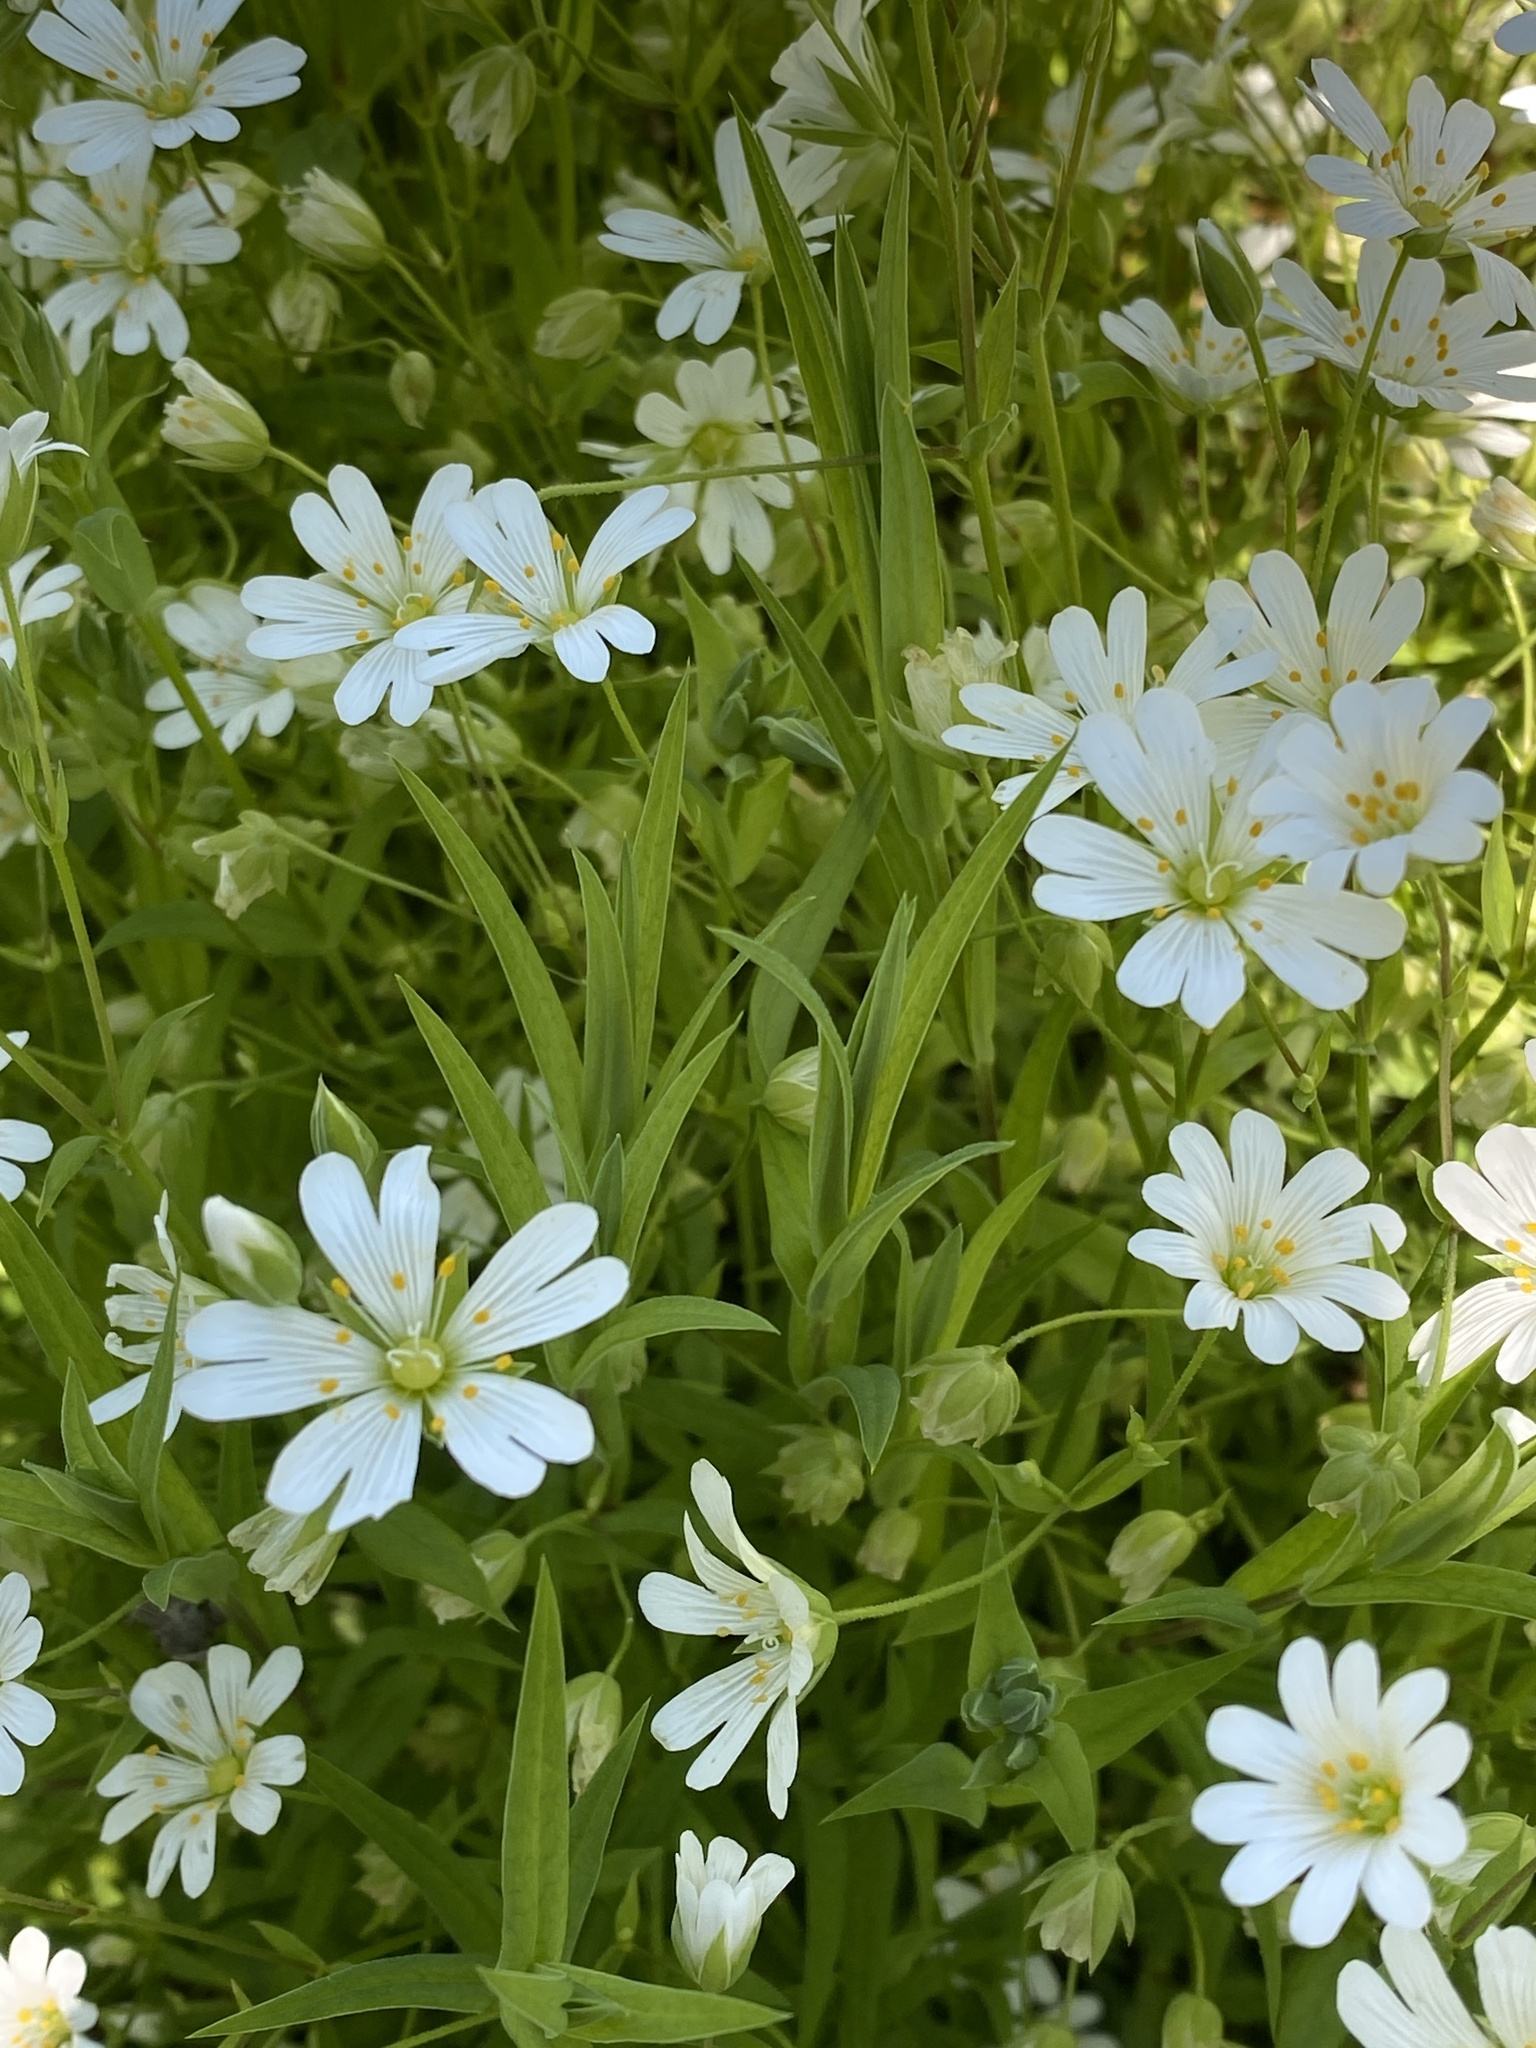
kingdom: Plantae
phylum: Tracheophyta
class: Magnoliopsida
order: Caryophyllales
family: Caryophyllaceae
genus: Rabelera
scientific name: Rabelera holostea
